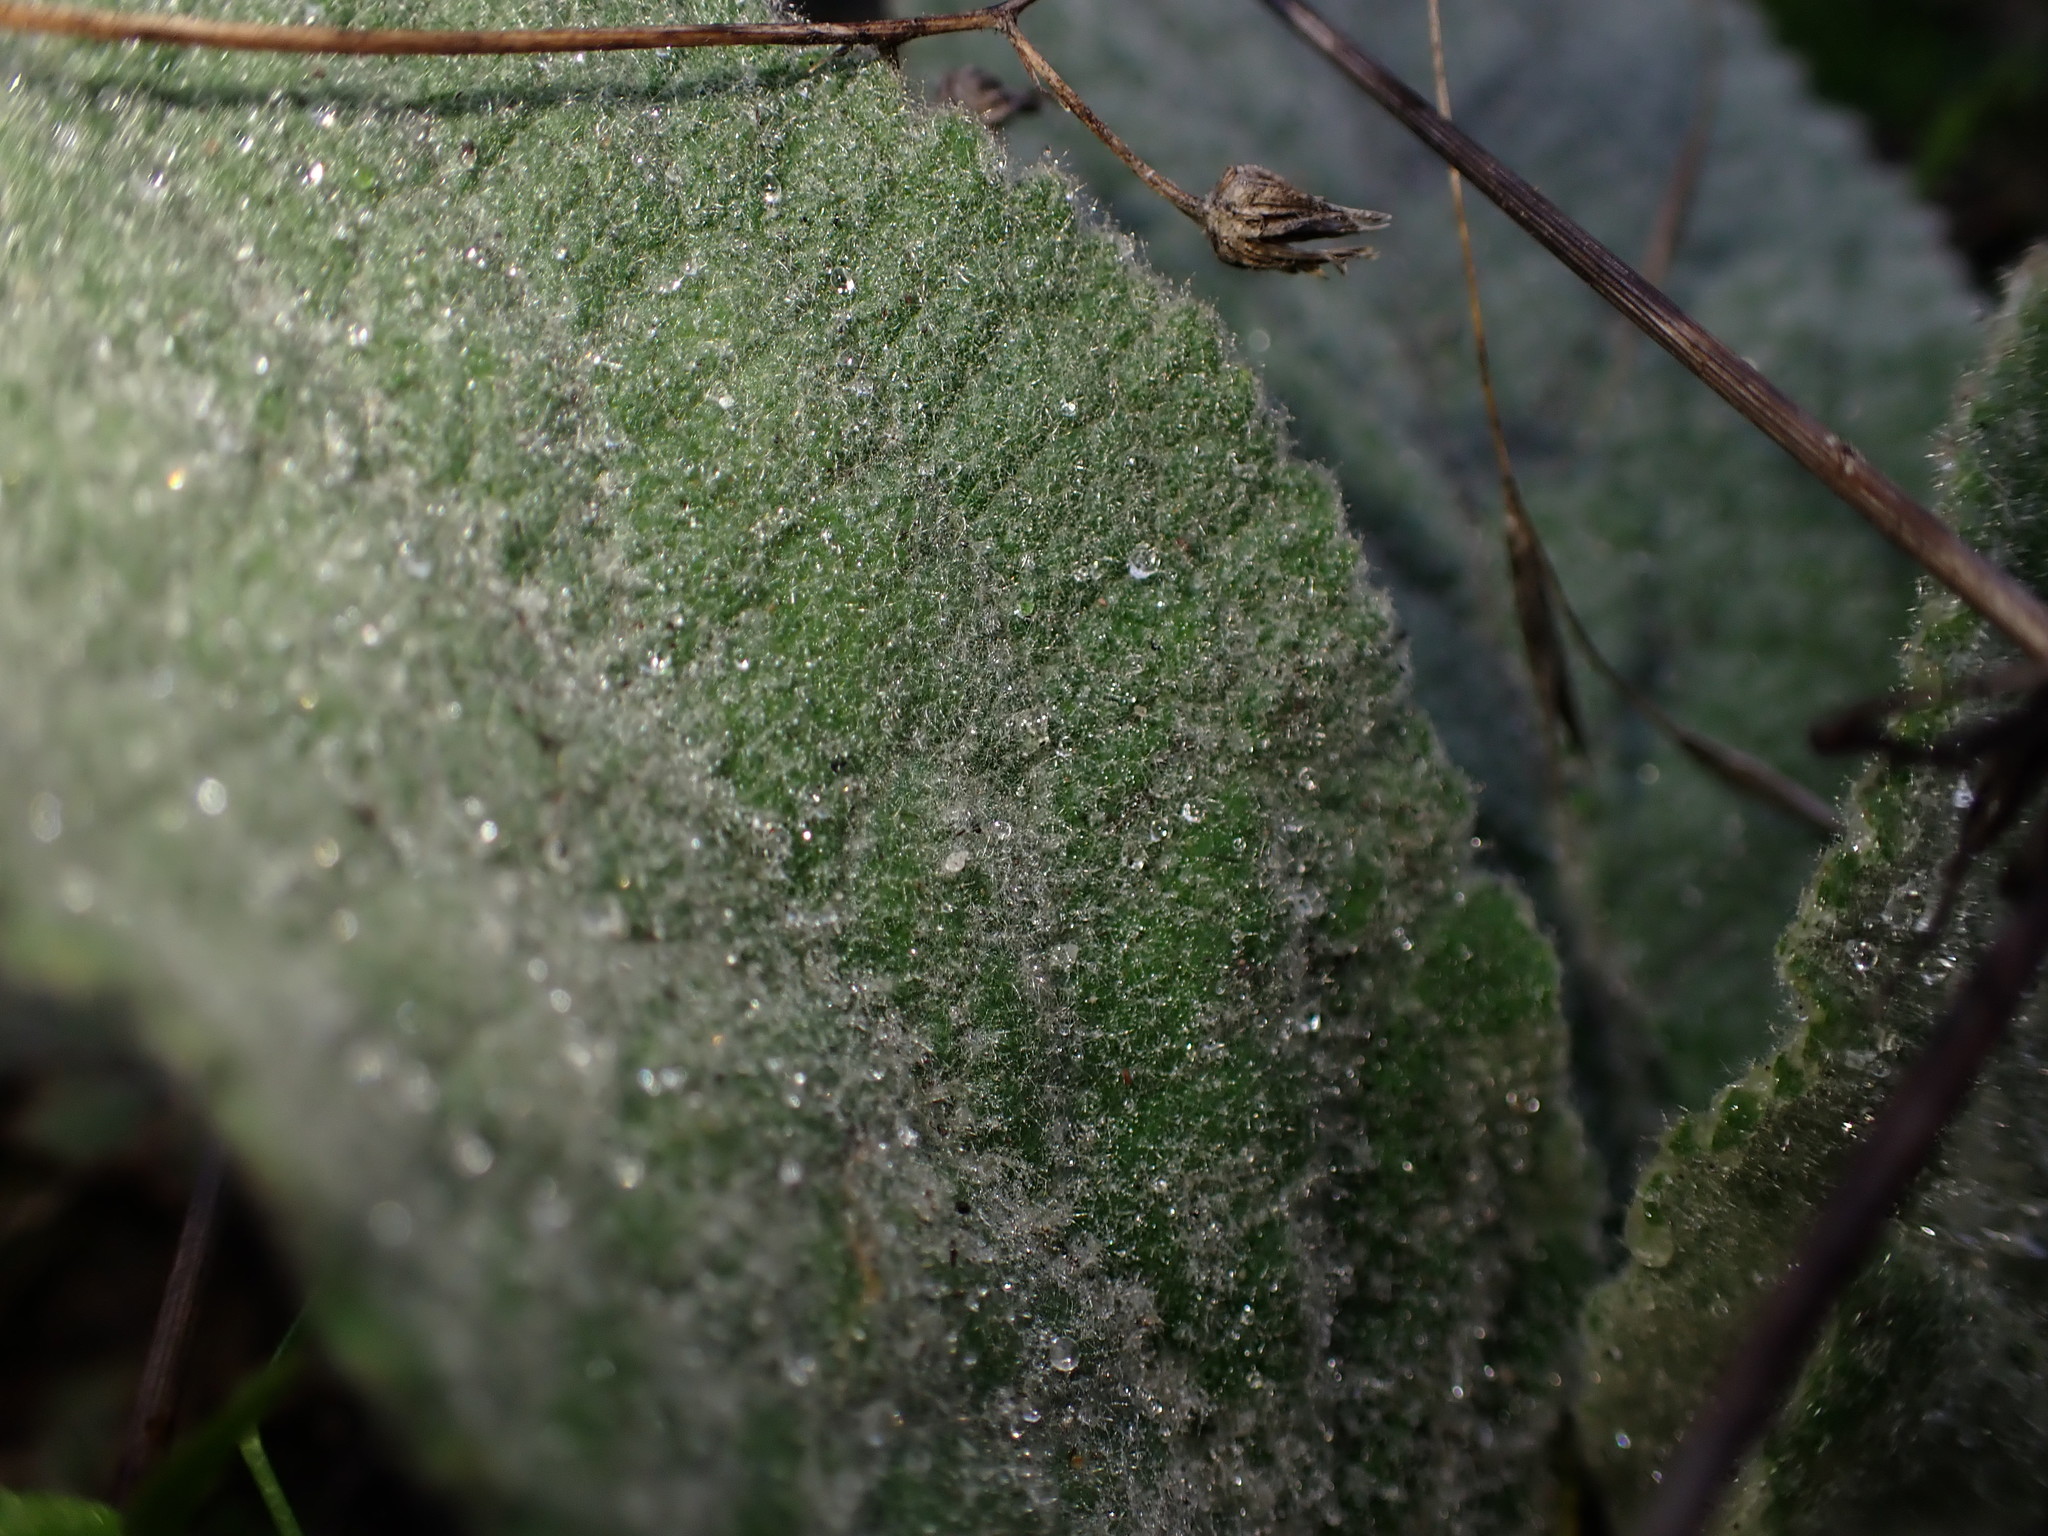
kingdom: Plantae
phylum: Tracheophyta
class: Magnoliopsida
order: Lamiales
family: Scrophulariaceae
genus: Verbascum
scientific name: Verbascum thapsus
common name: Common mullein
